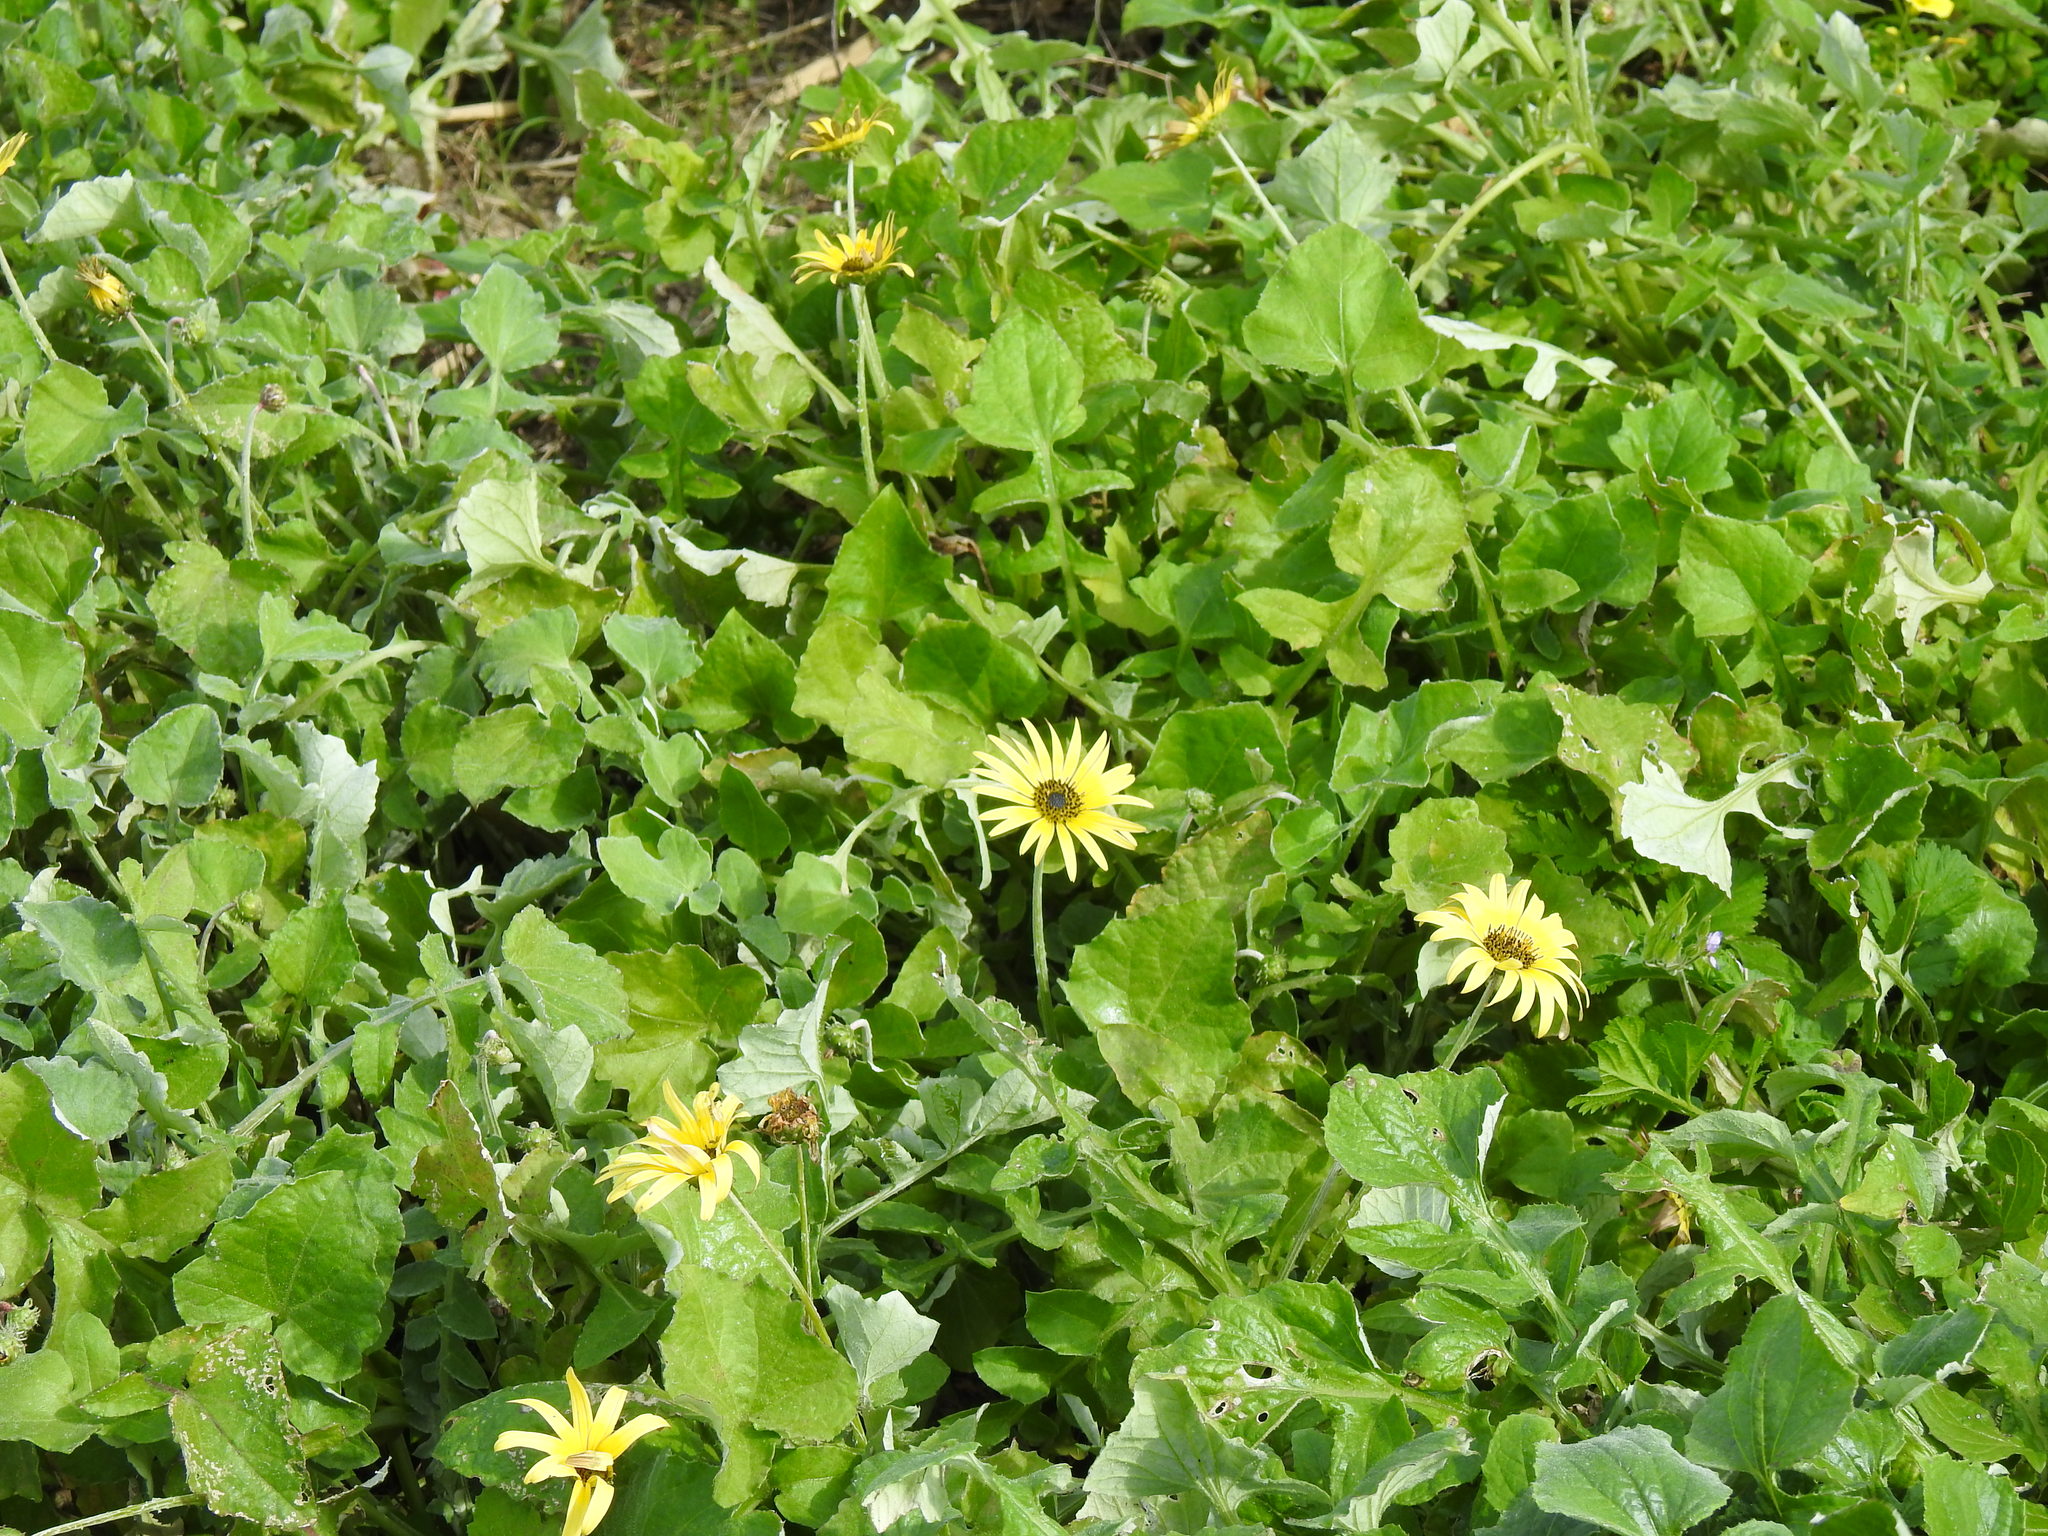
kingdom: Plantae
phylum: Tracheophyta
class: Magnoliopsida
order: Asterales
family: Asteraceae
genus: Arctotheca
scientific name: Arctotheca calendula
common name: Capeweed
